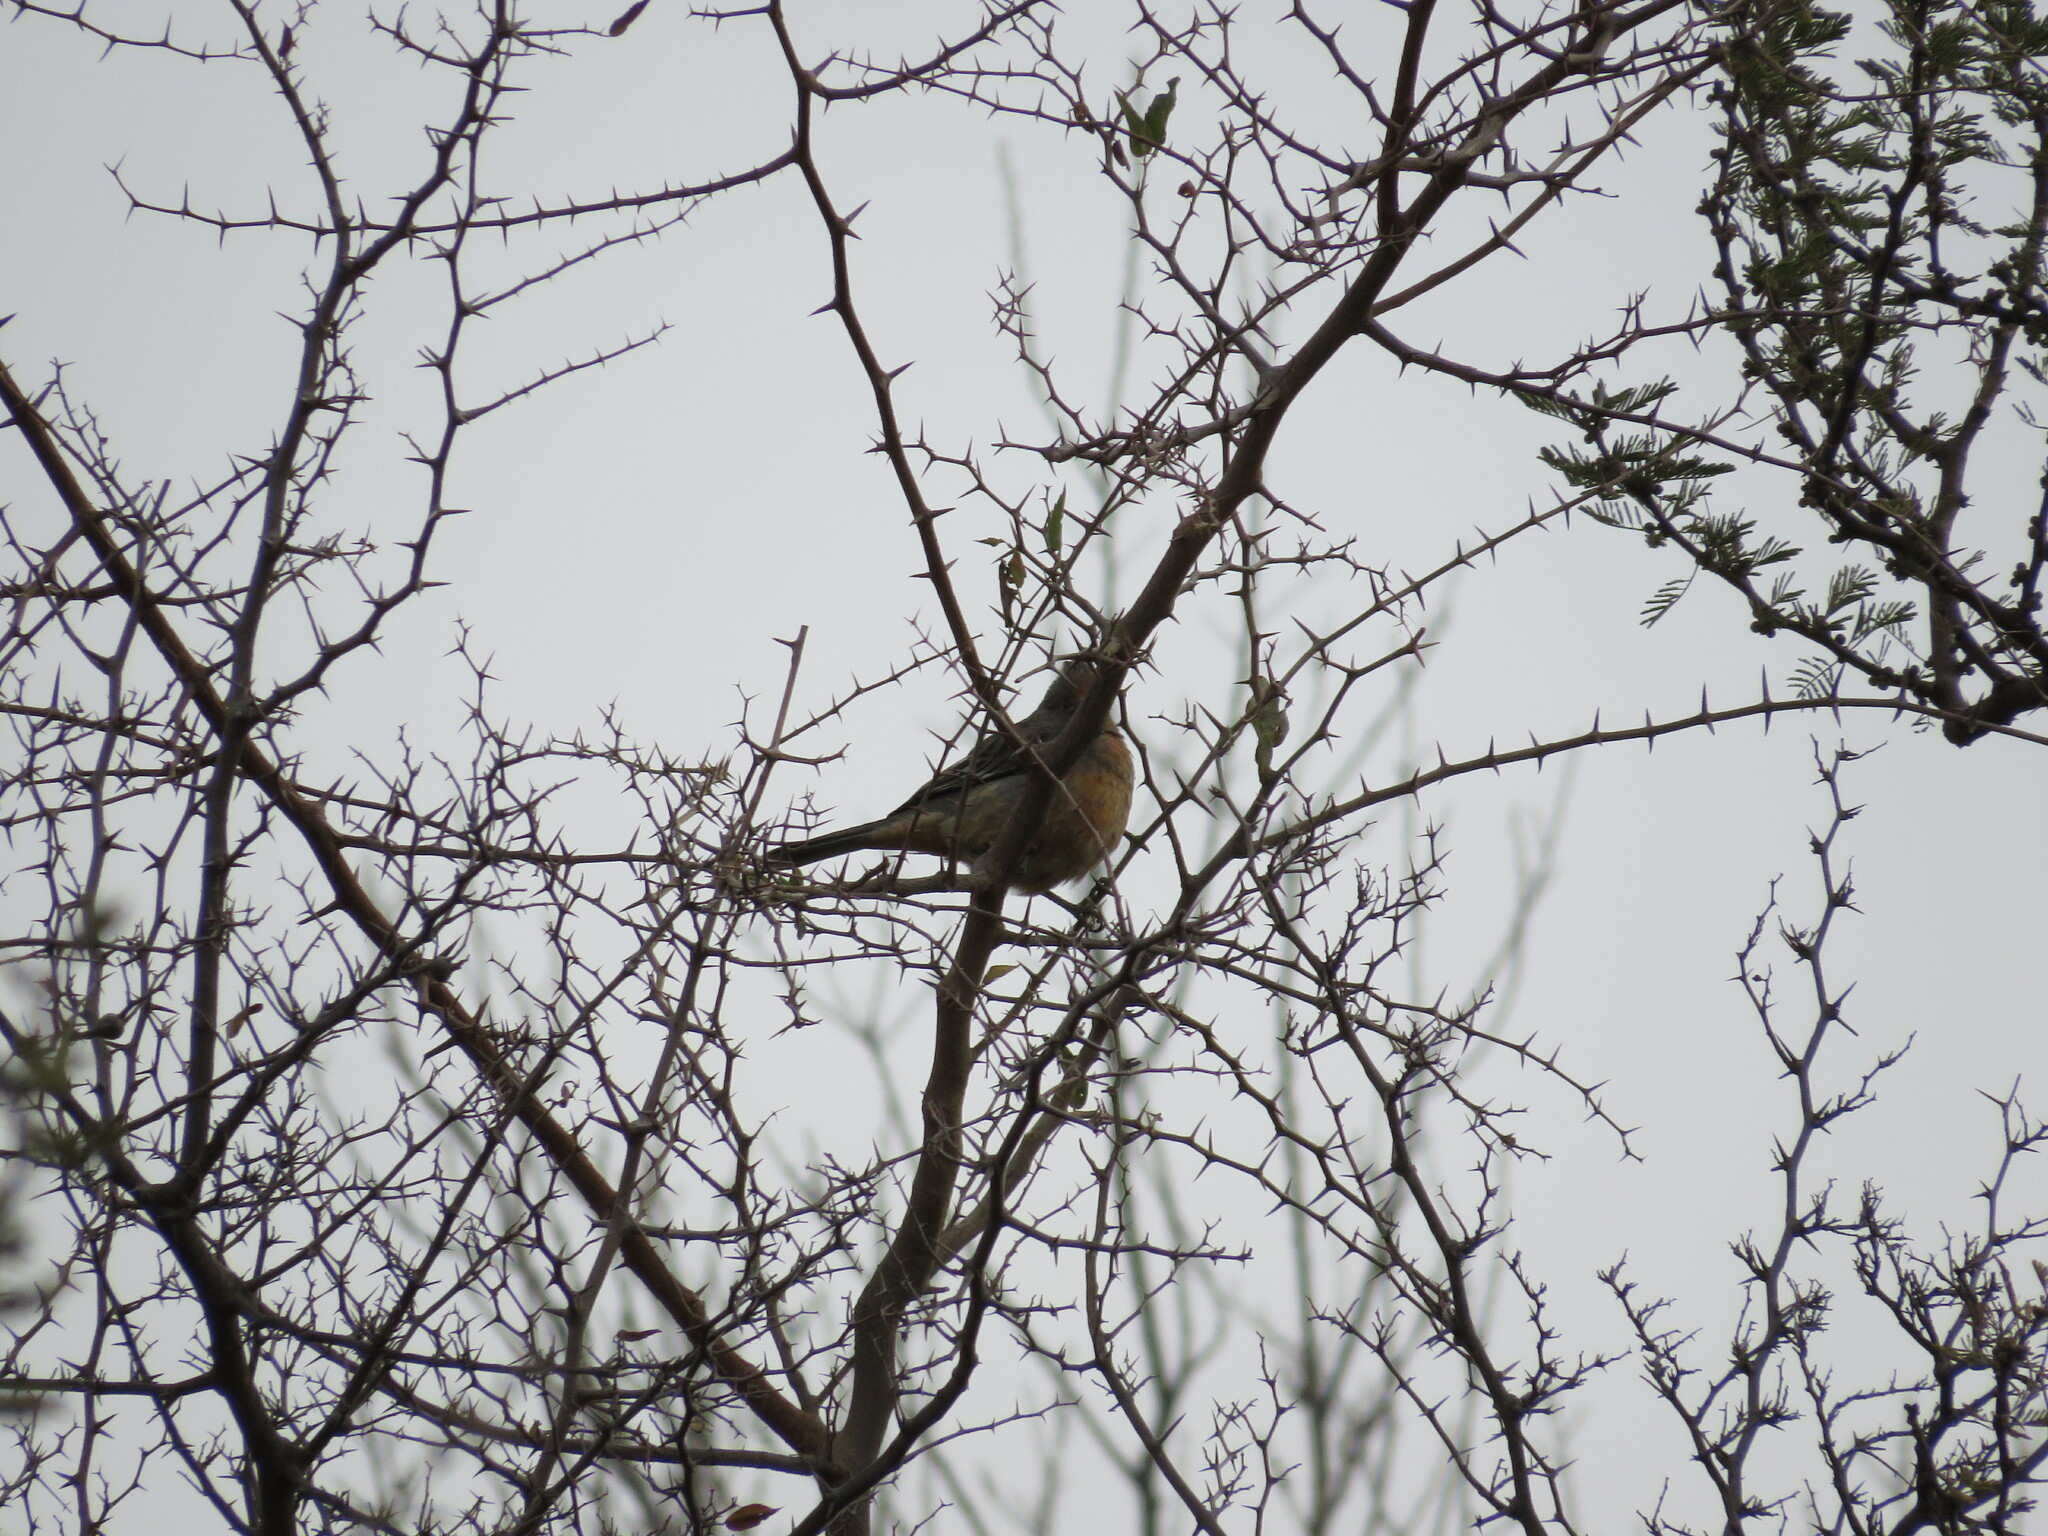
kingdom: Animalia
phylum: Chordata
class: Aves
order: Passeriformes
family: Cotingidae
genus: Phytotoma
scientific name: Phytotoma rutila
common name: White-tipped plantcutter
